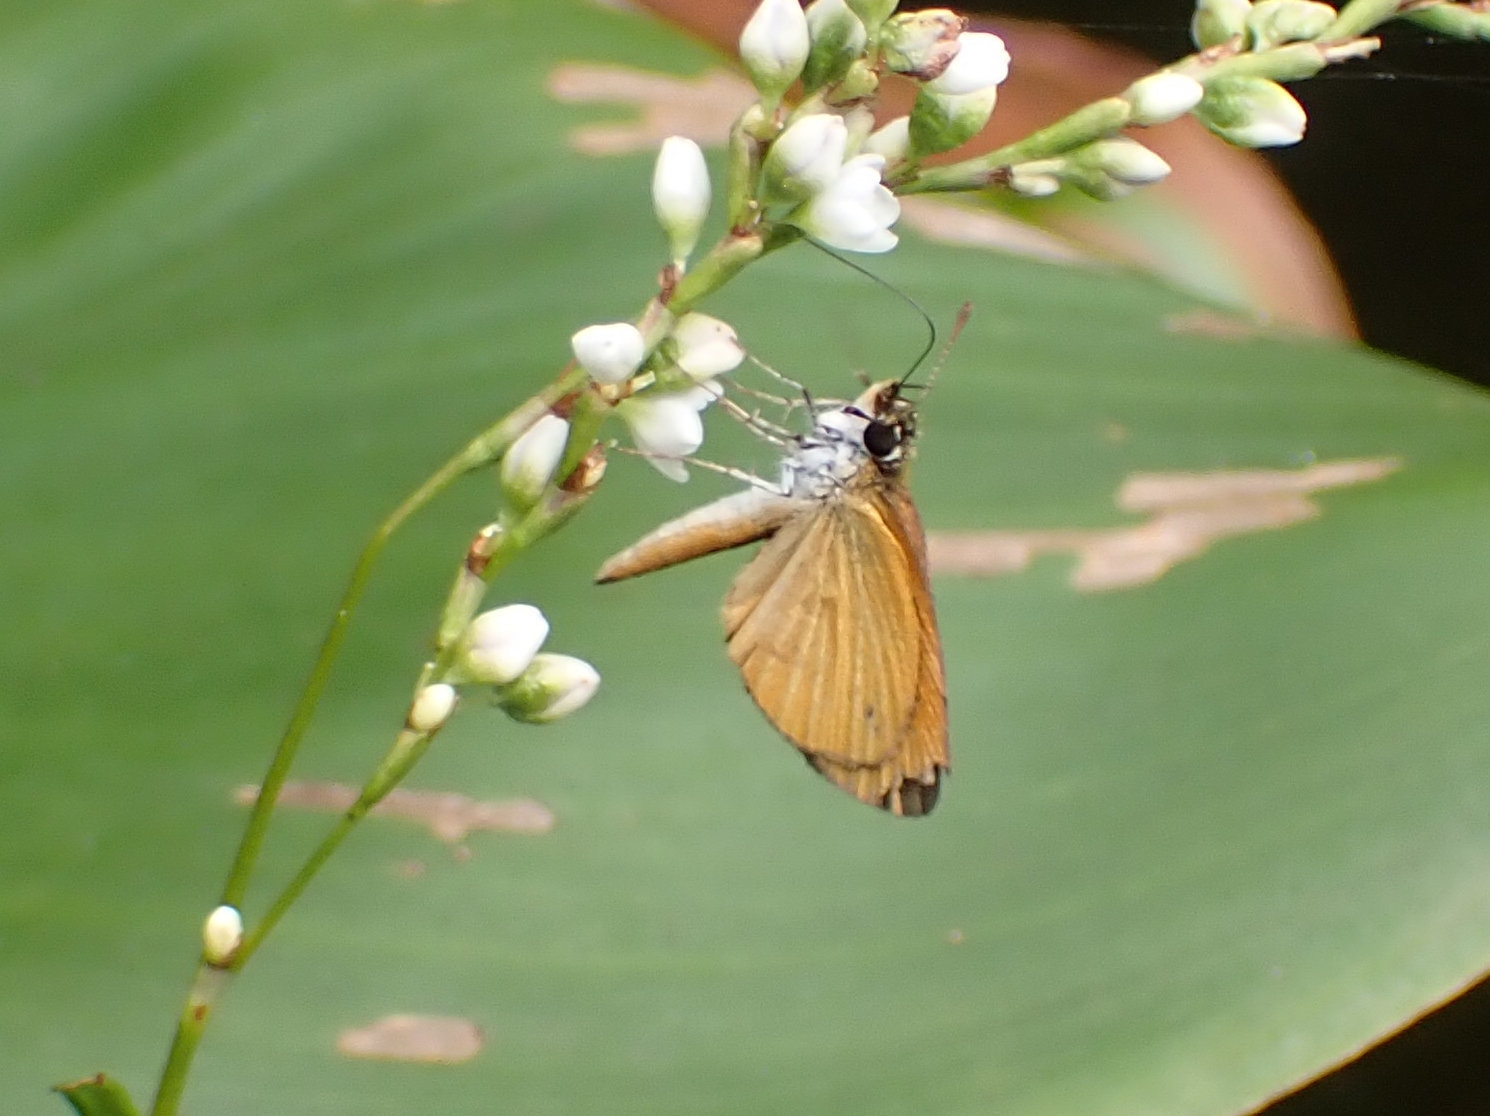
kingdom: Animalia
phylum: Arthropoda
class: Insecta
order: Lepidoptera
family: Hesperiidae
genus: Ancyloxypha
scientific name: Ancyloxypha numitor
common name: Least skipper
